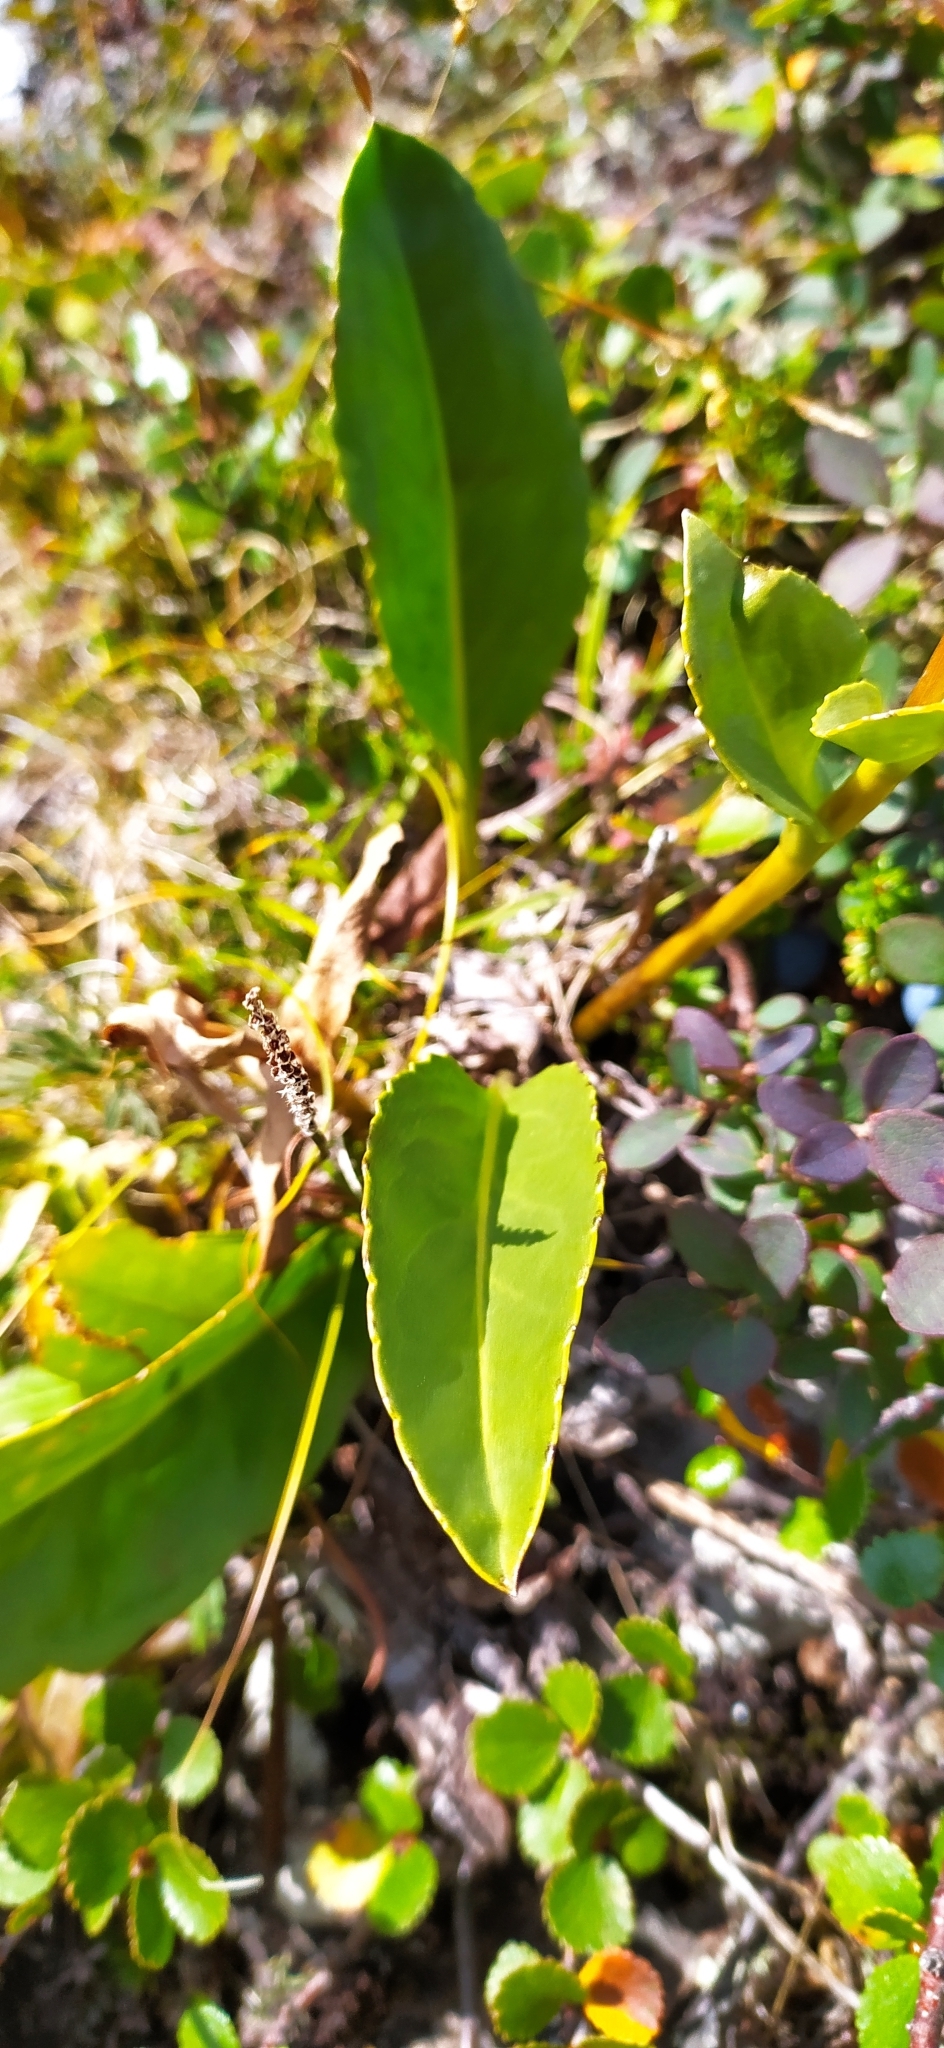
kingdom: Plantae
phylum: Tracheophyta
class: Magnoliopsida
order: Lamiales
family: Plantaginaceae
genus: Lagotis
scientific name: Lagotis uralensis
